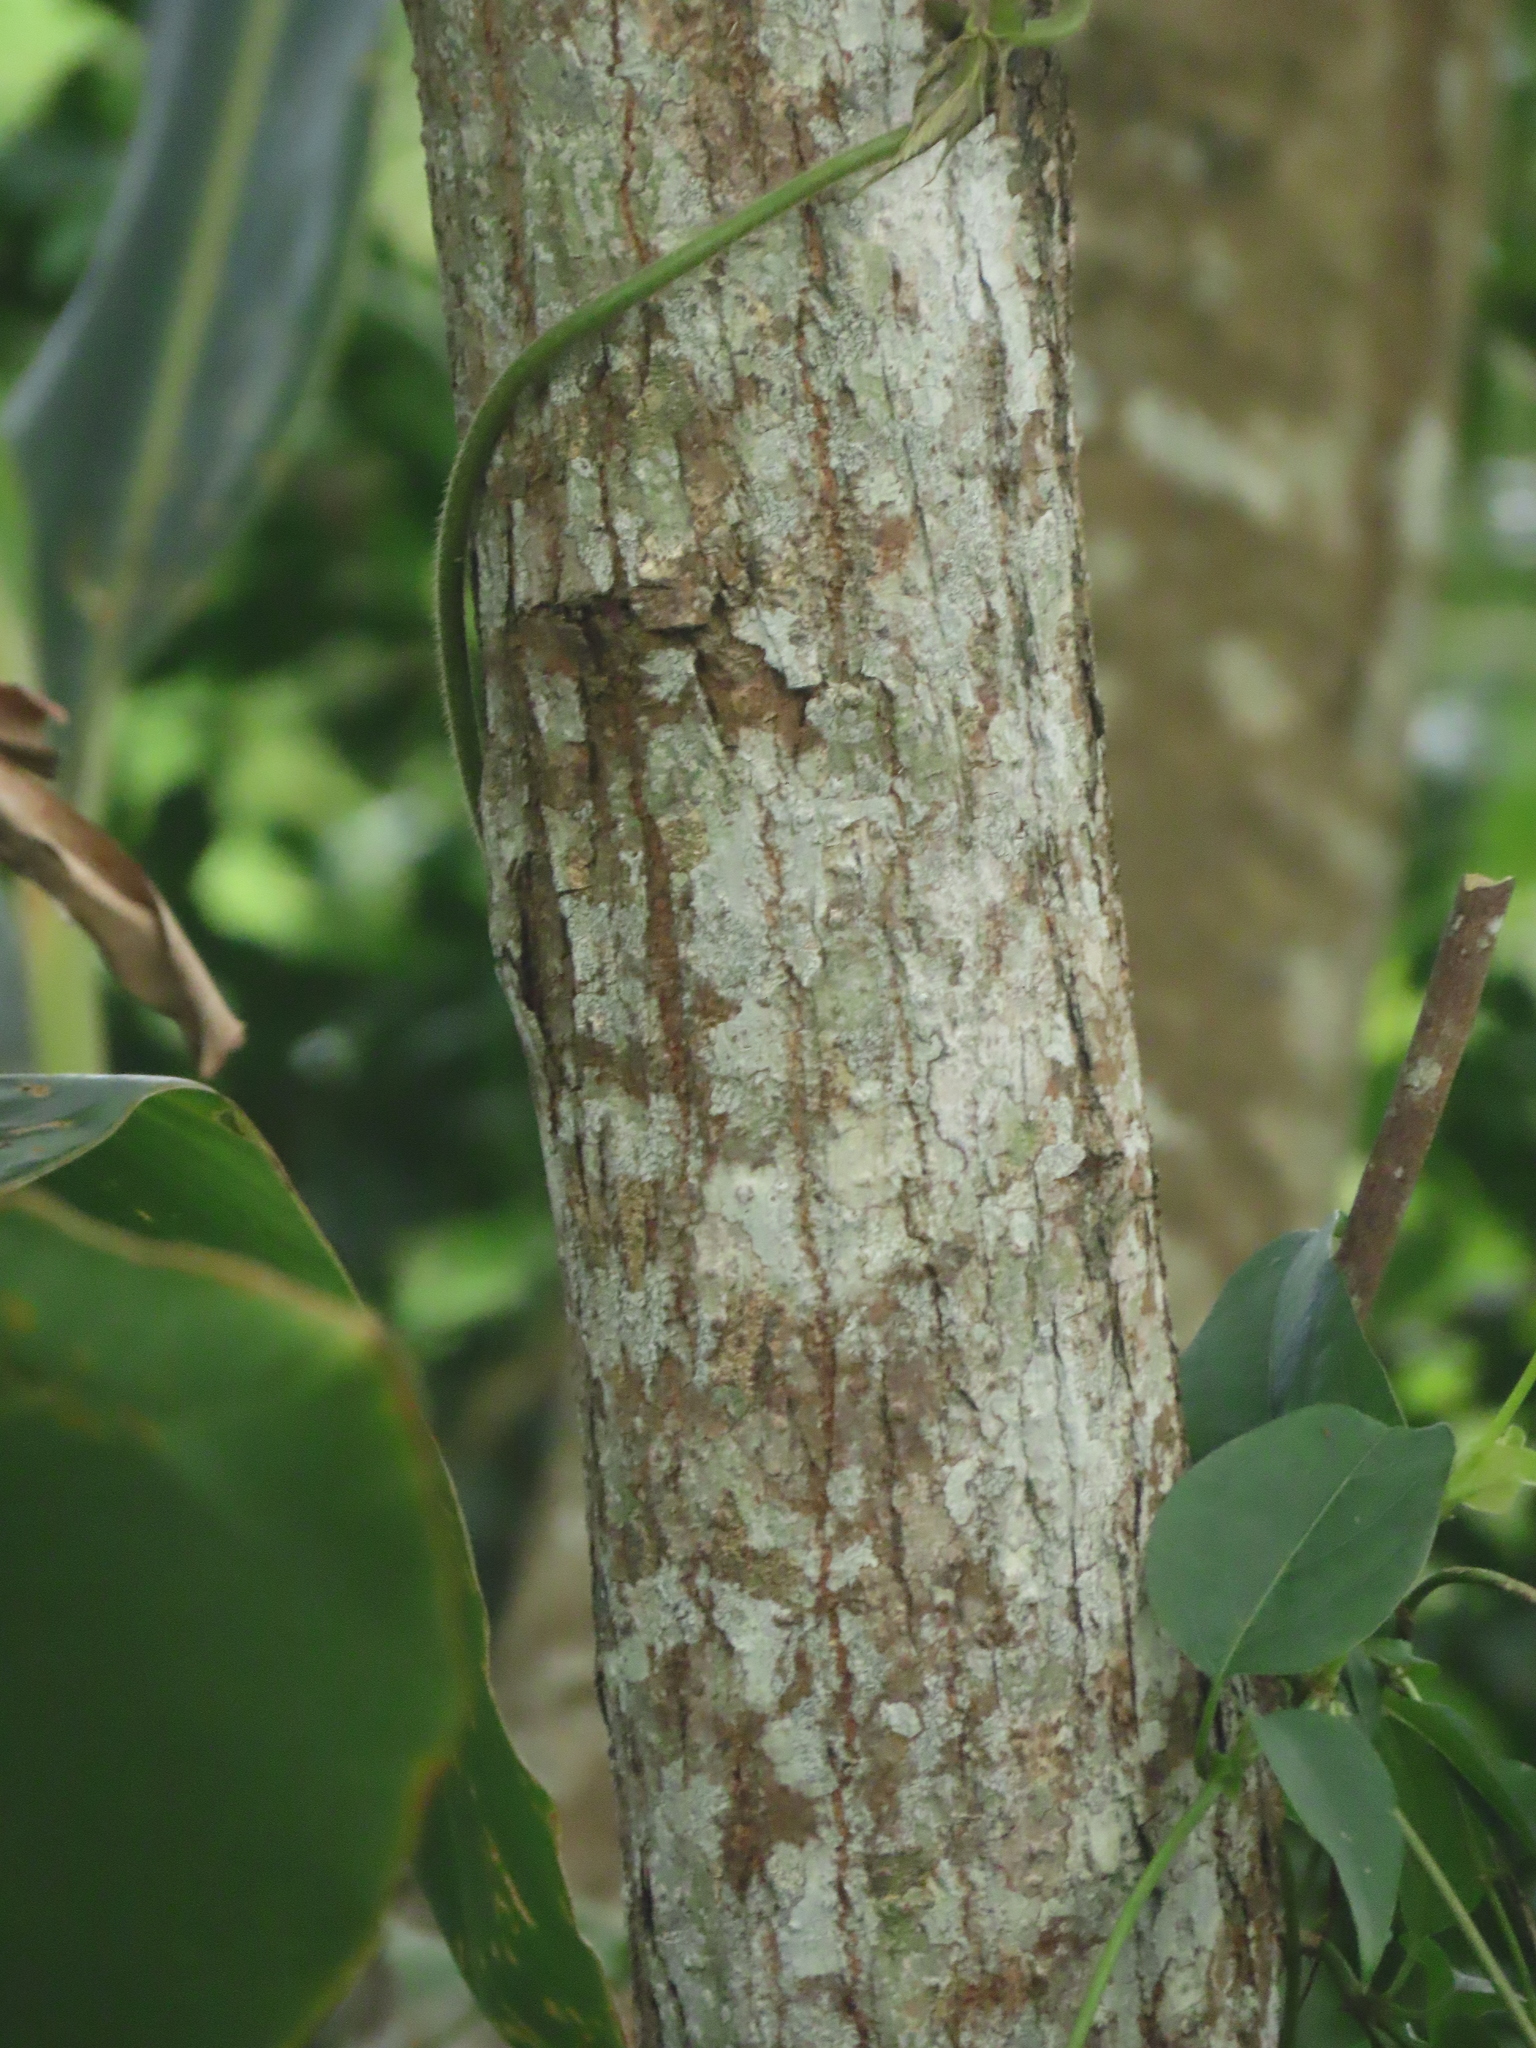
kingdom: Plantae
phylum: Tracheophyta
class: Magnoliopsida
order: Rosales
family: Cannabaceae
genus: Celtis
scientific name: Celtis tetrandra
